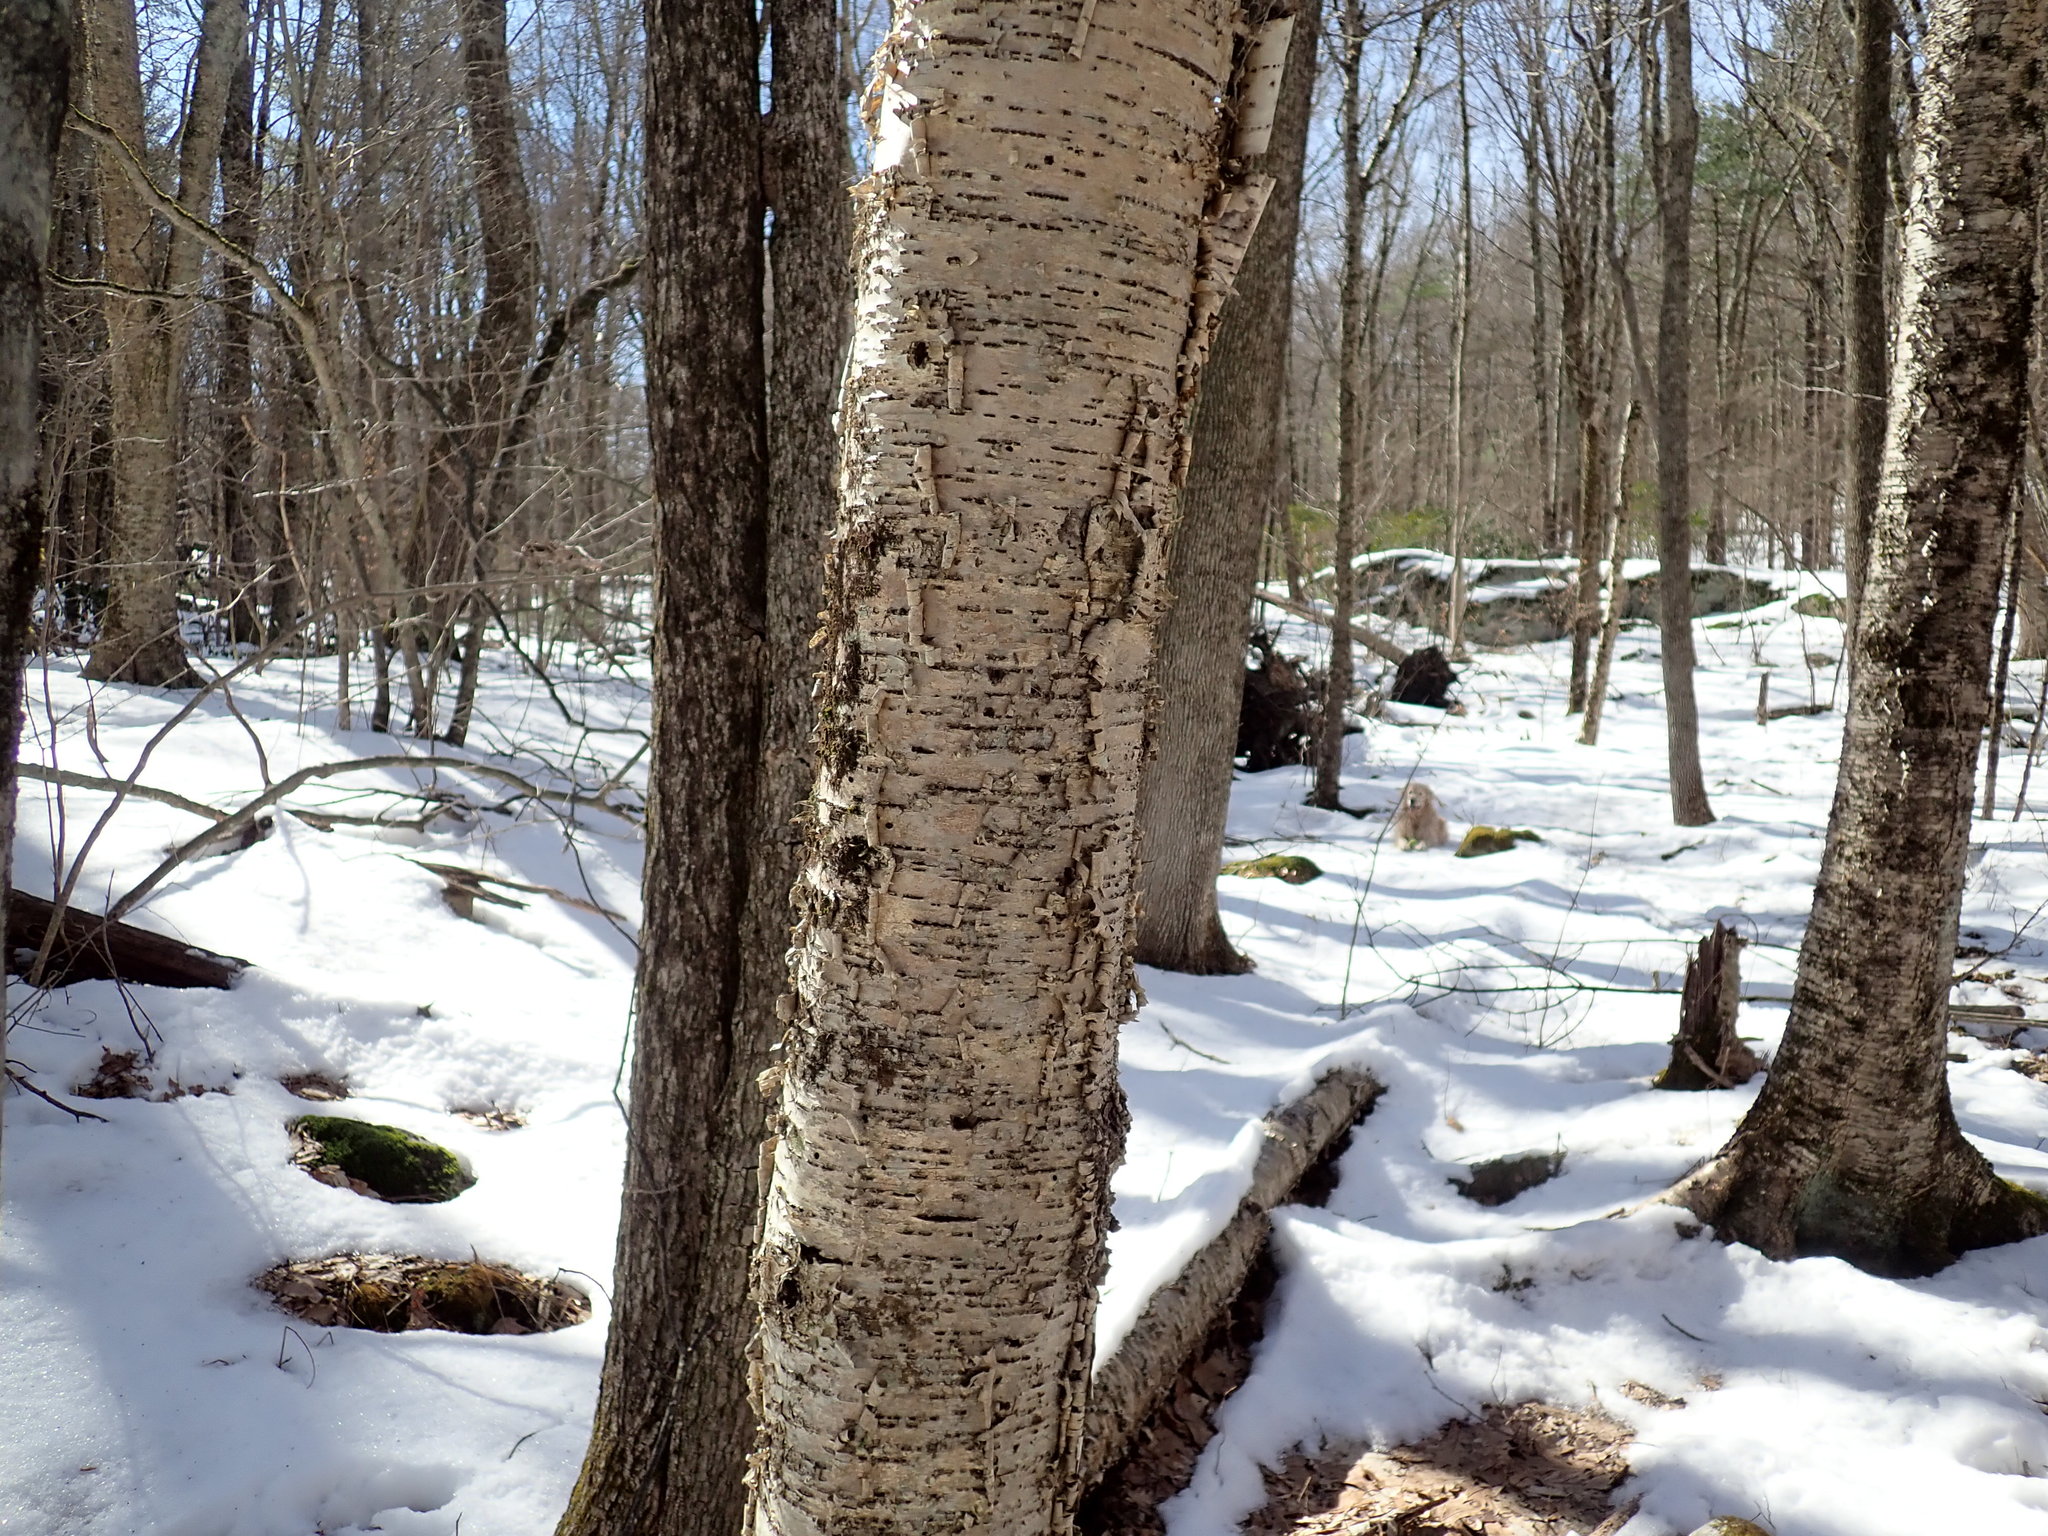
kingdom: Plantae
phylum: Tracheophyta
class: Magnoliopsida
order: Fagales
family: Betulaceae
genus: Betula
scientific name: Betula alleghaniensis
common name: Yellow birch
